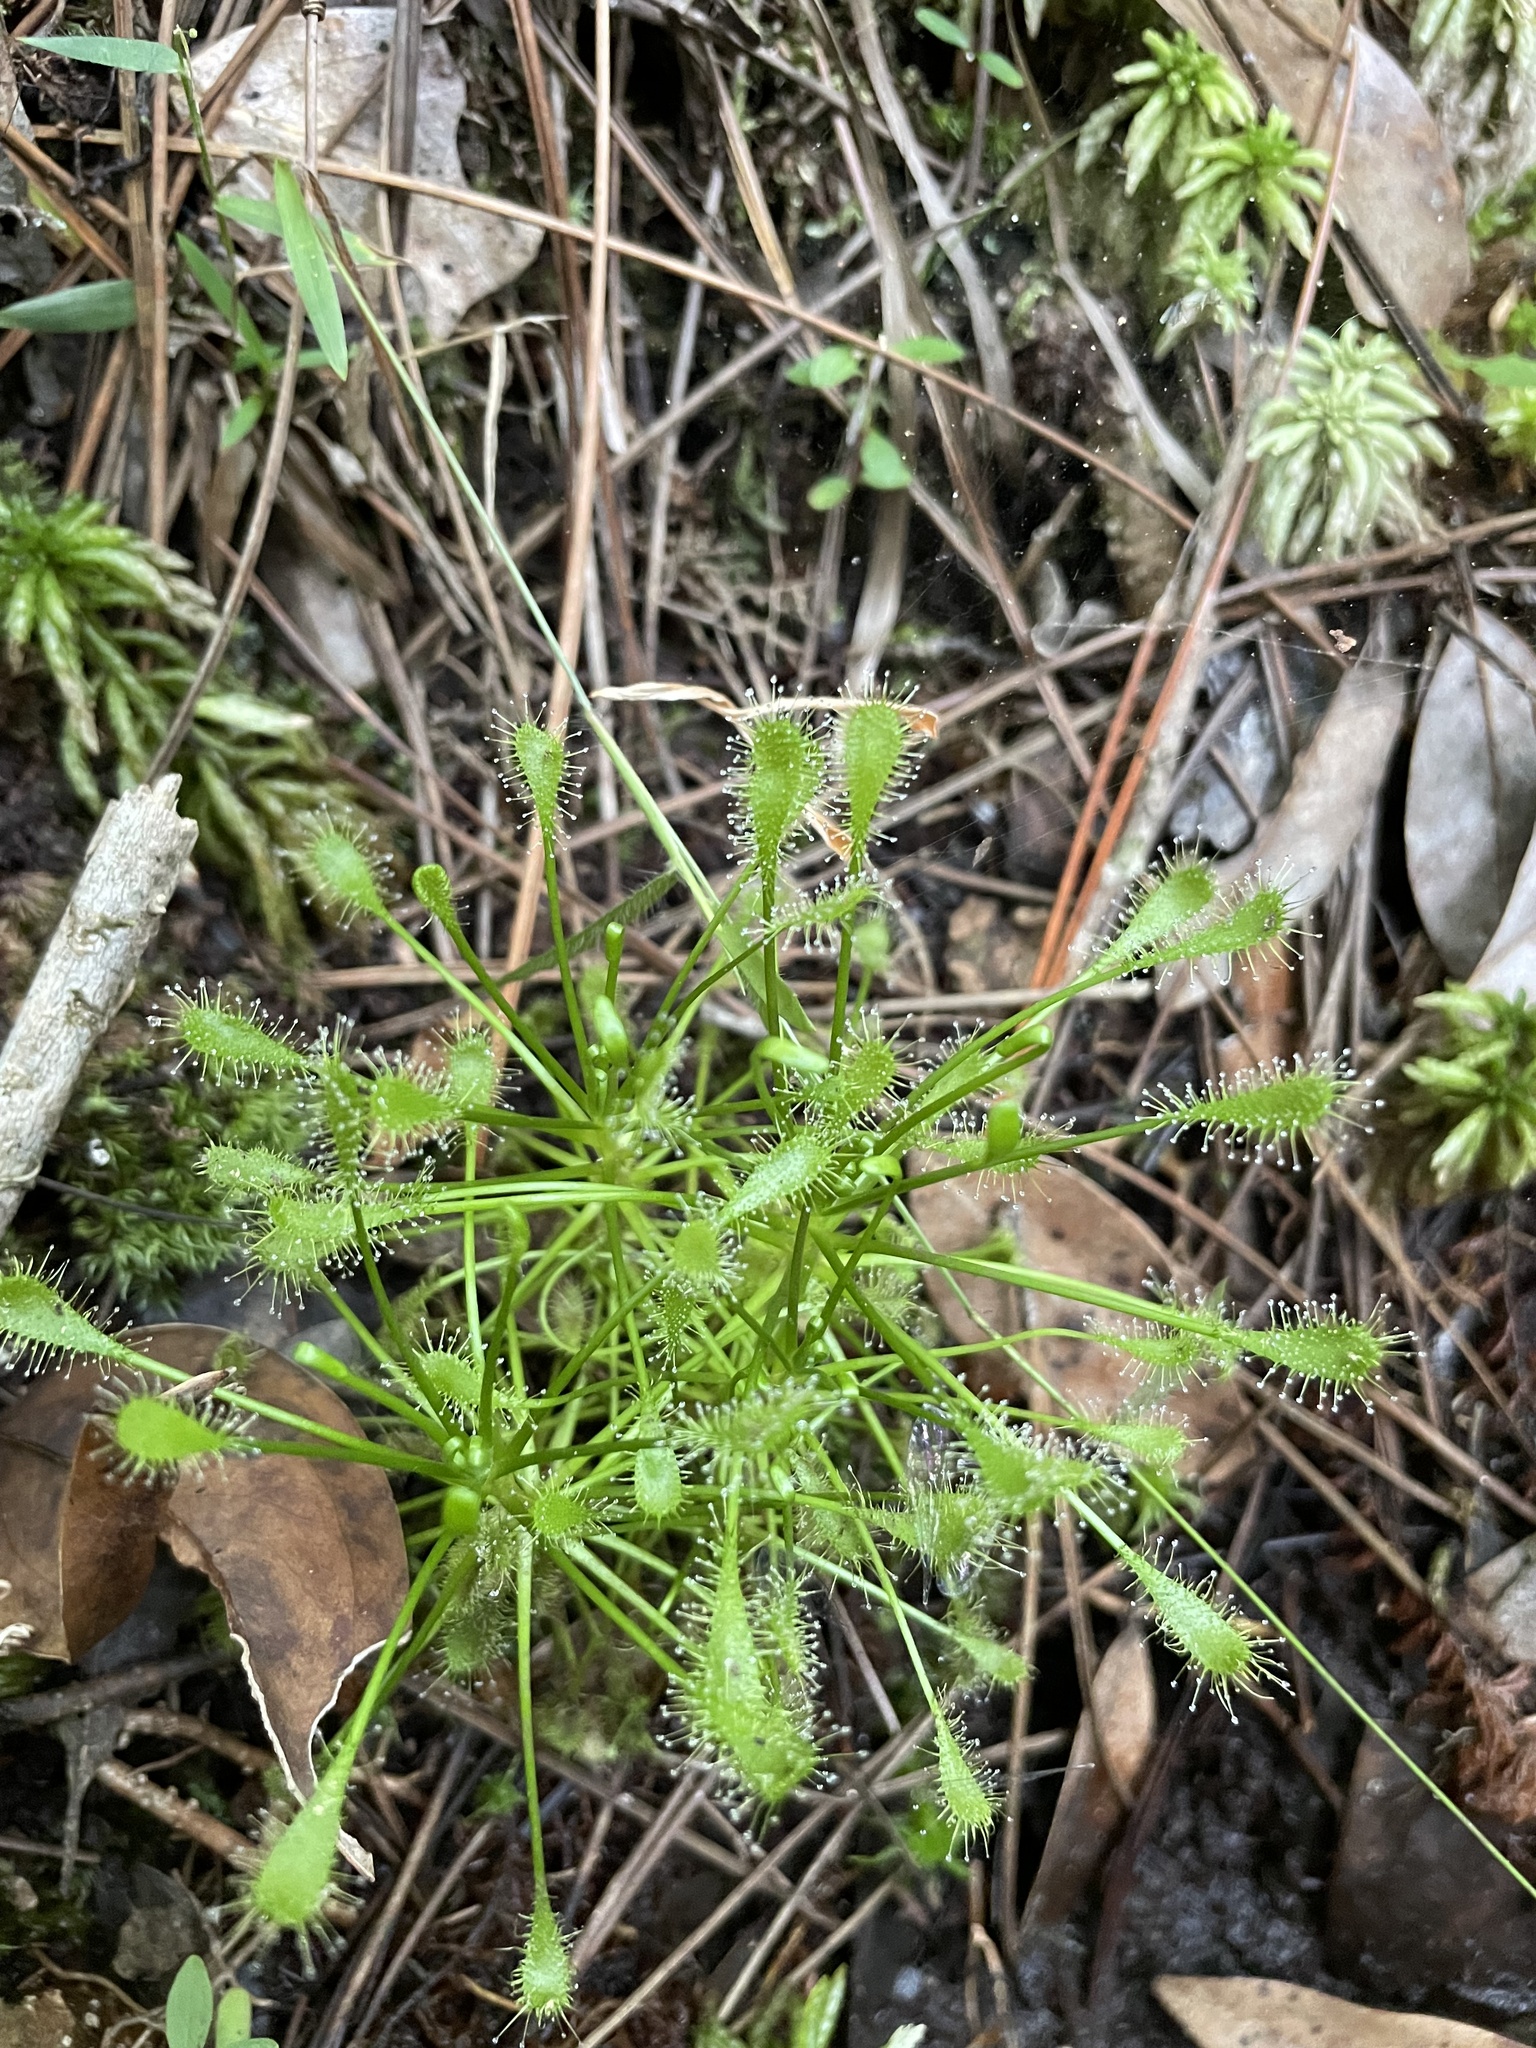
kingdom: Plantae
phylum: Tracheophyta
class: Magnoliopsida
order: Caryophyllales
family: Droseraceae
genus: Drosera
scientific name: Drosera intermedia
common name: Oblong-leaved sundew
